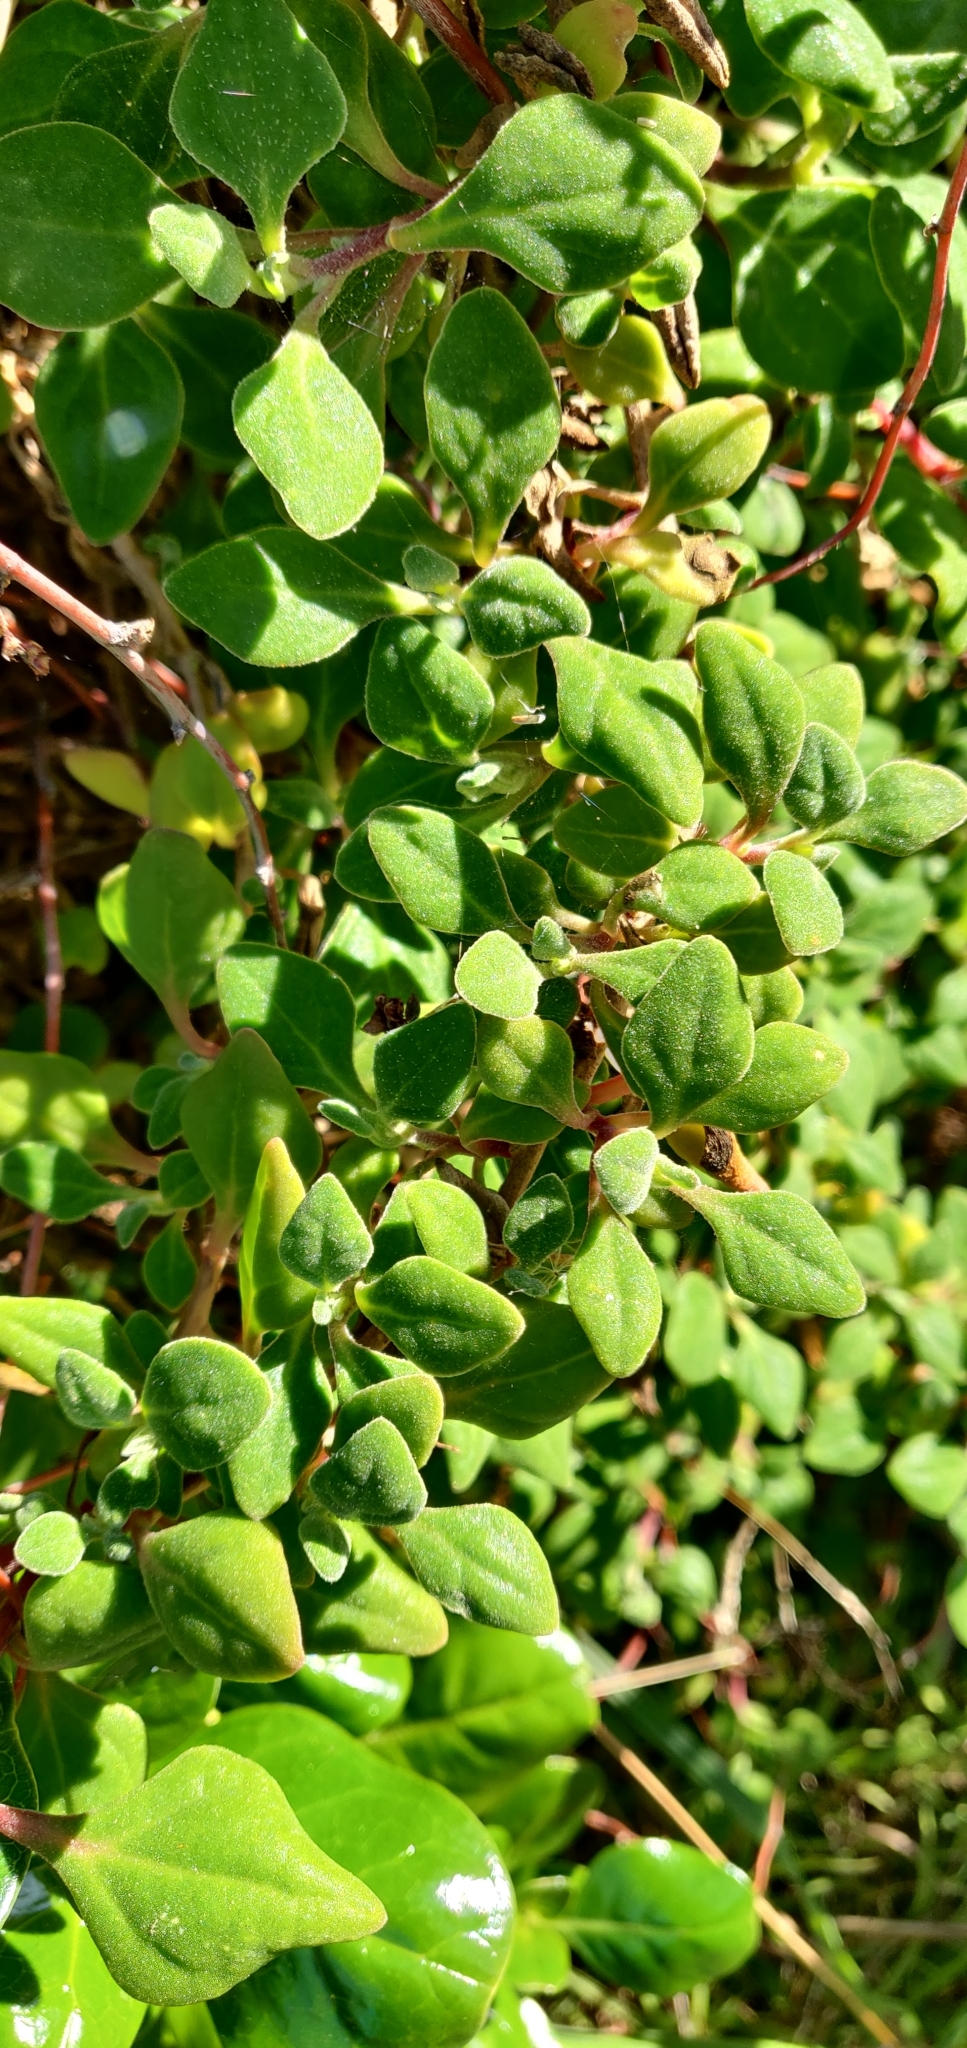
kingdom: Plantae
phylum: Tracheophyta
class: Magnoliopsida
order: Caryophyllales
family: Aizoaceae
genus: Tetragonia
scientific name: Tetragonia implexicoma
